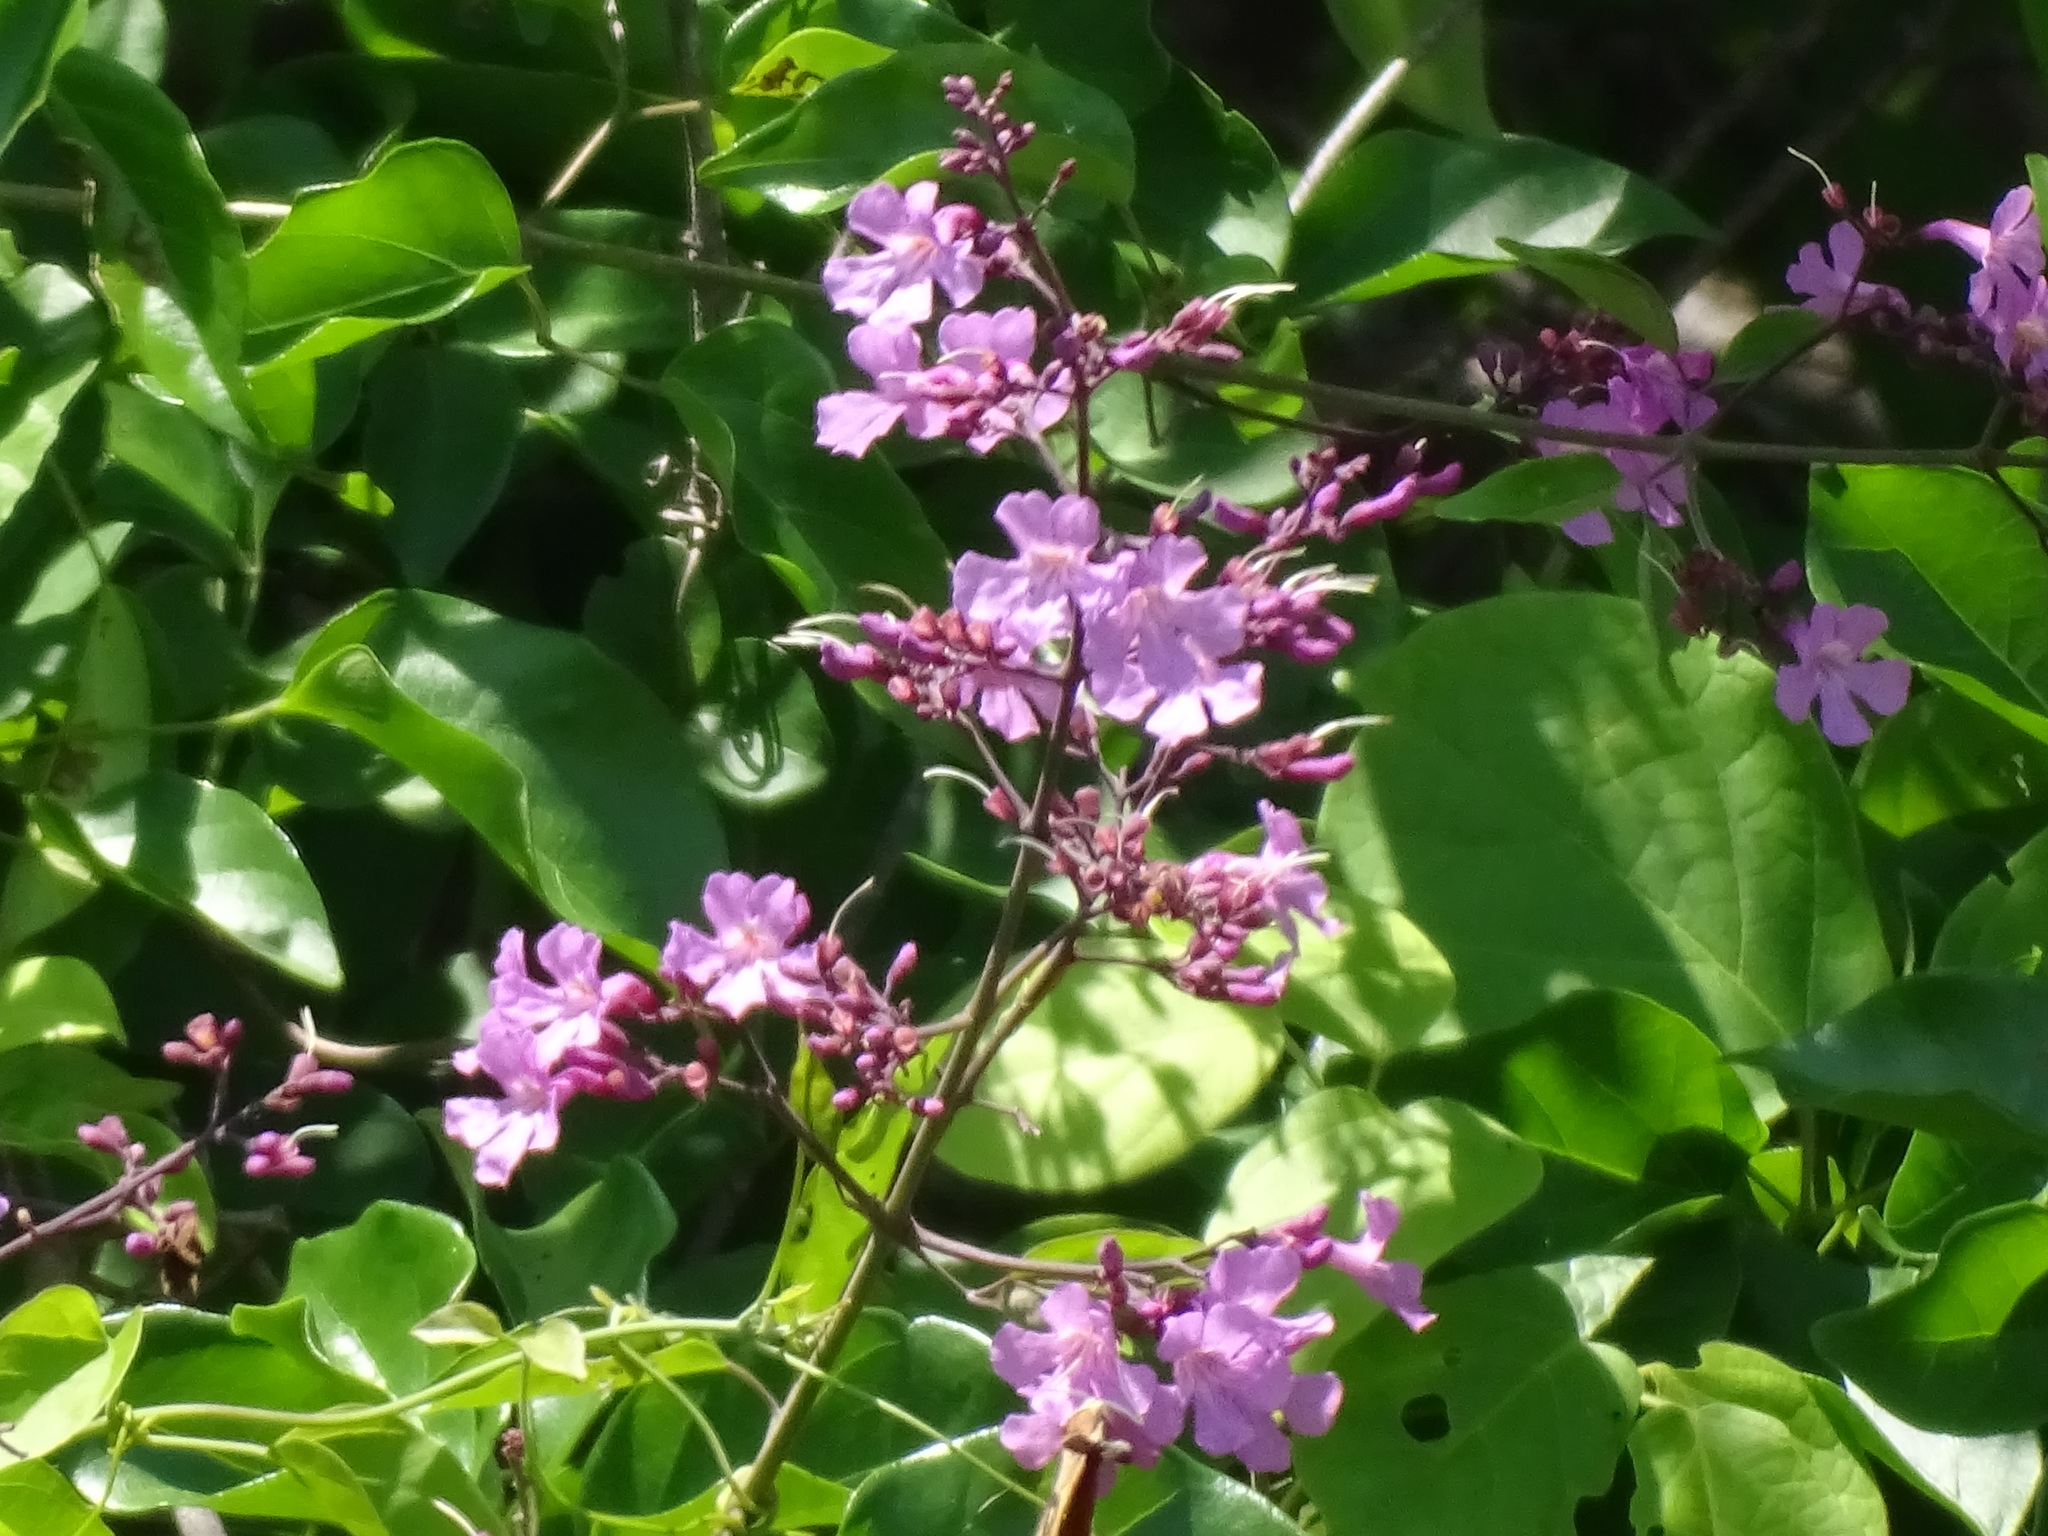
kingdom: Plantae
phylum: Tracheophyta
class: Magnoliopsida
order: Lamiales
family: Bignoniaceae
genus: Fridericia
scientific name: Fridericia pubescens
